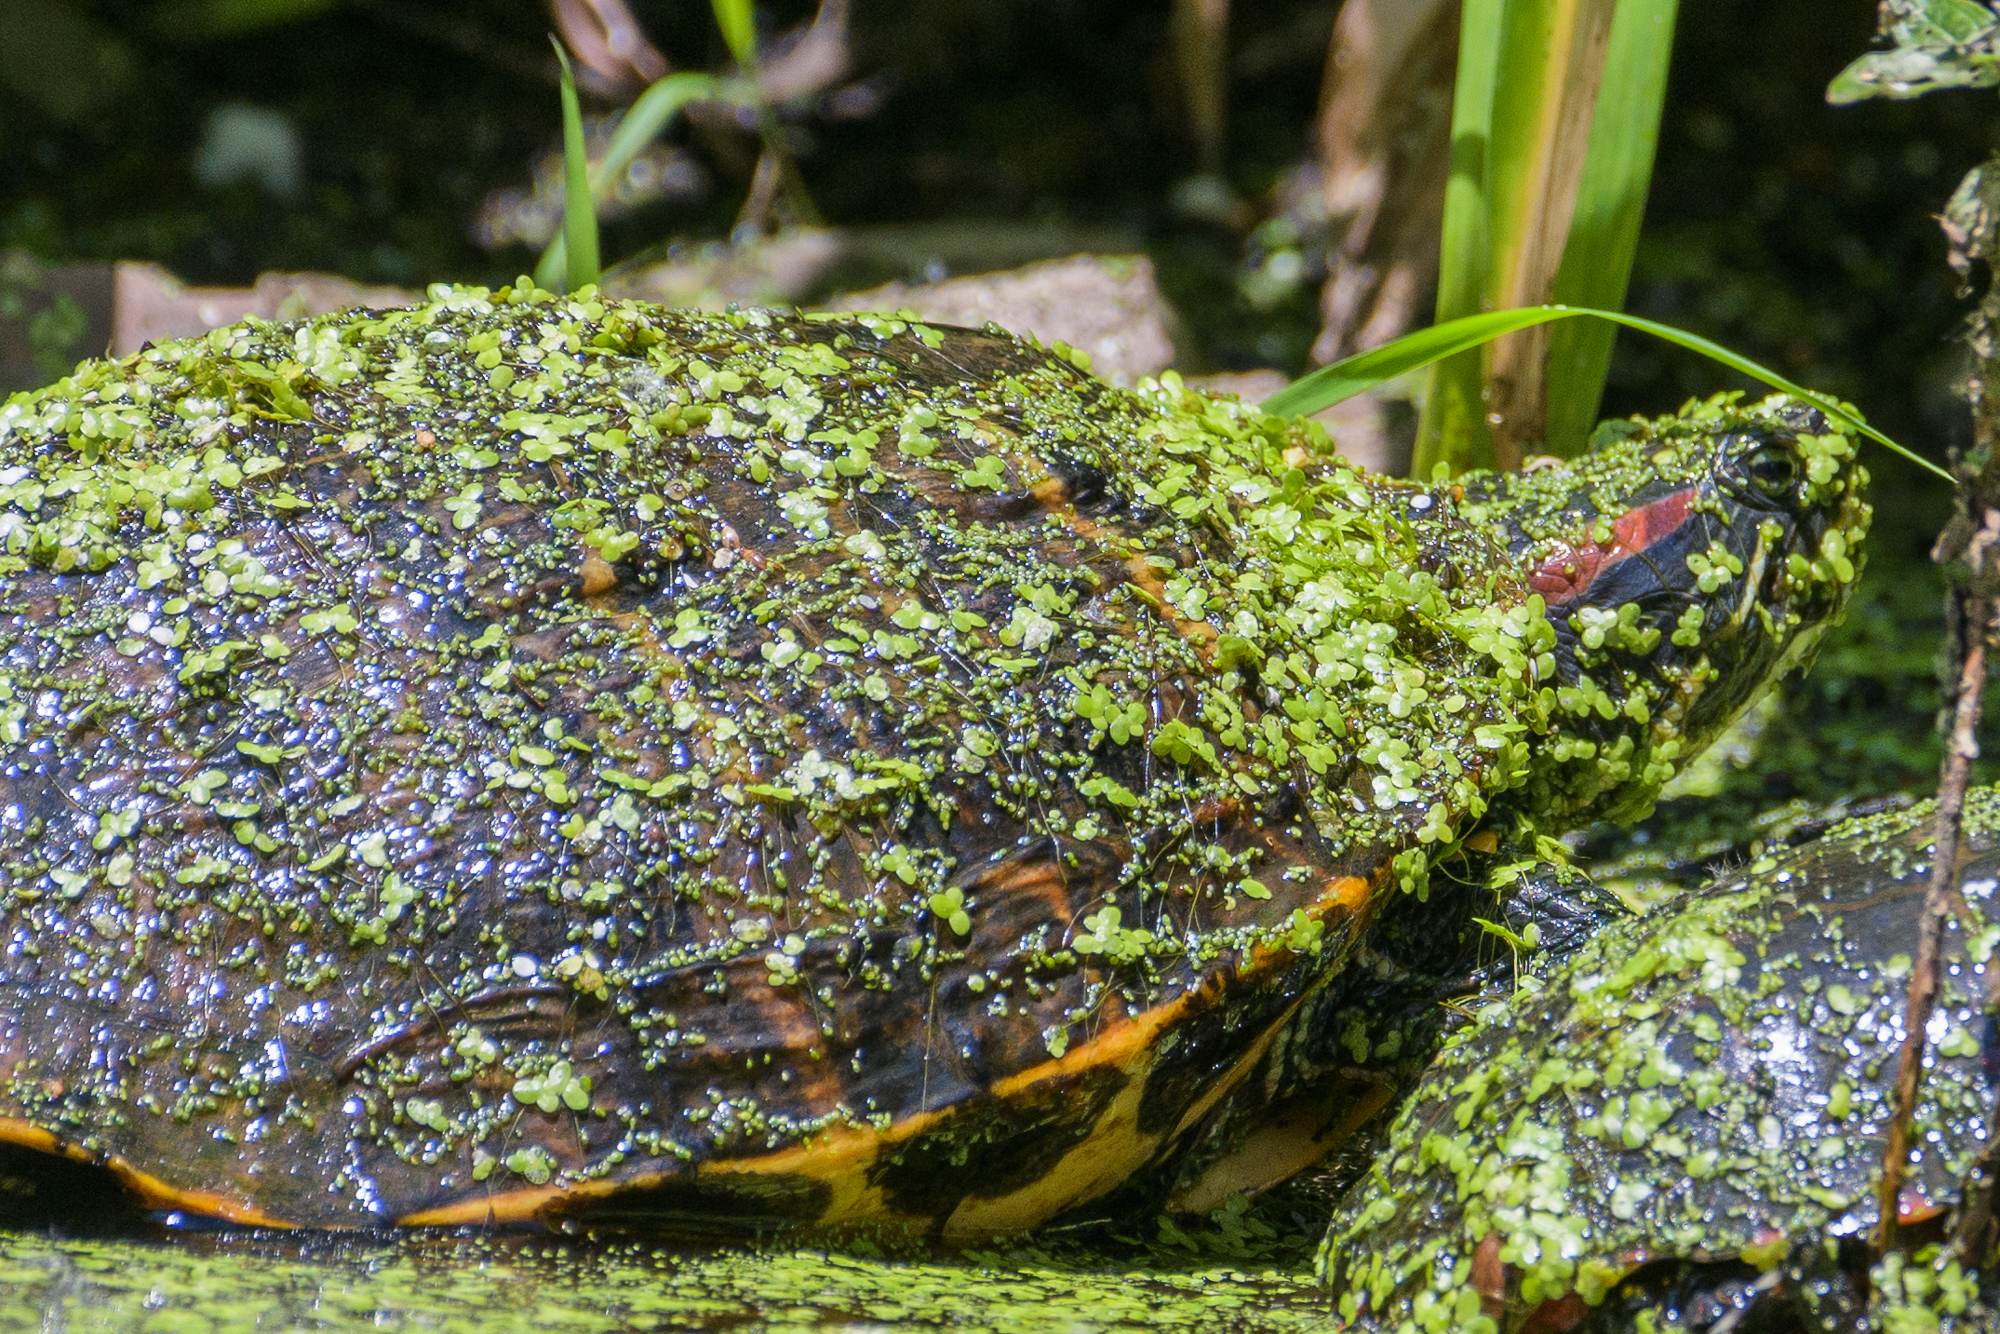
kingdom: Animalia
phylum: Chordata
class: Testudines
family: Emydidae
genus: Trachemys
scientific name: Trachemys scripta
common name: Slider
